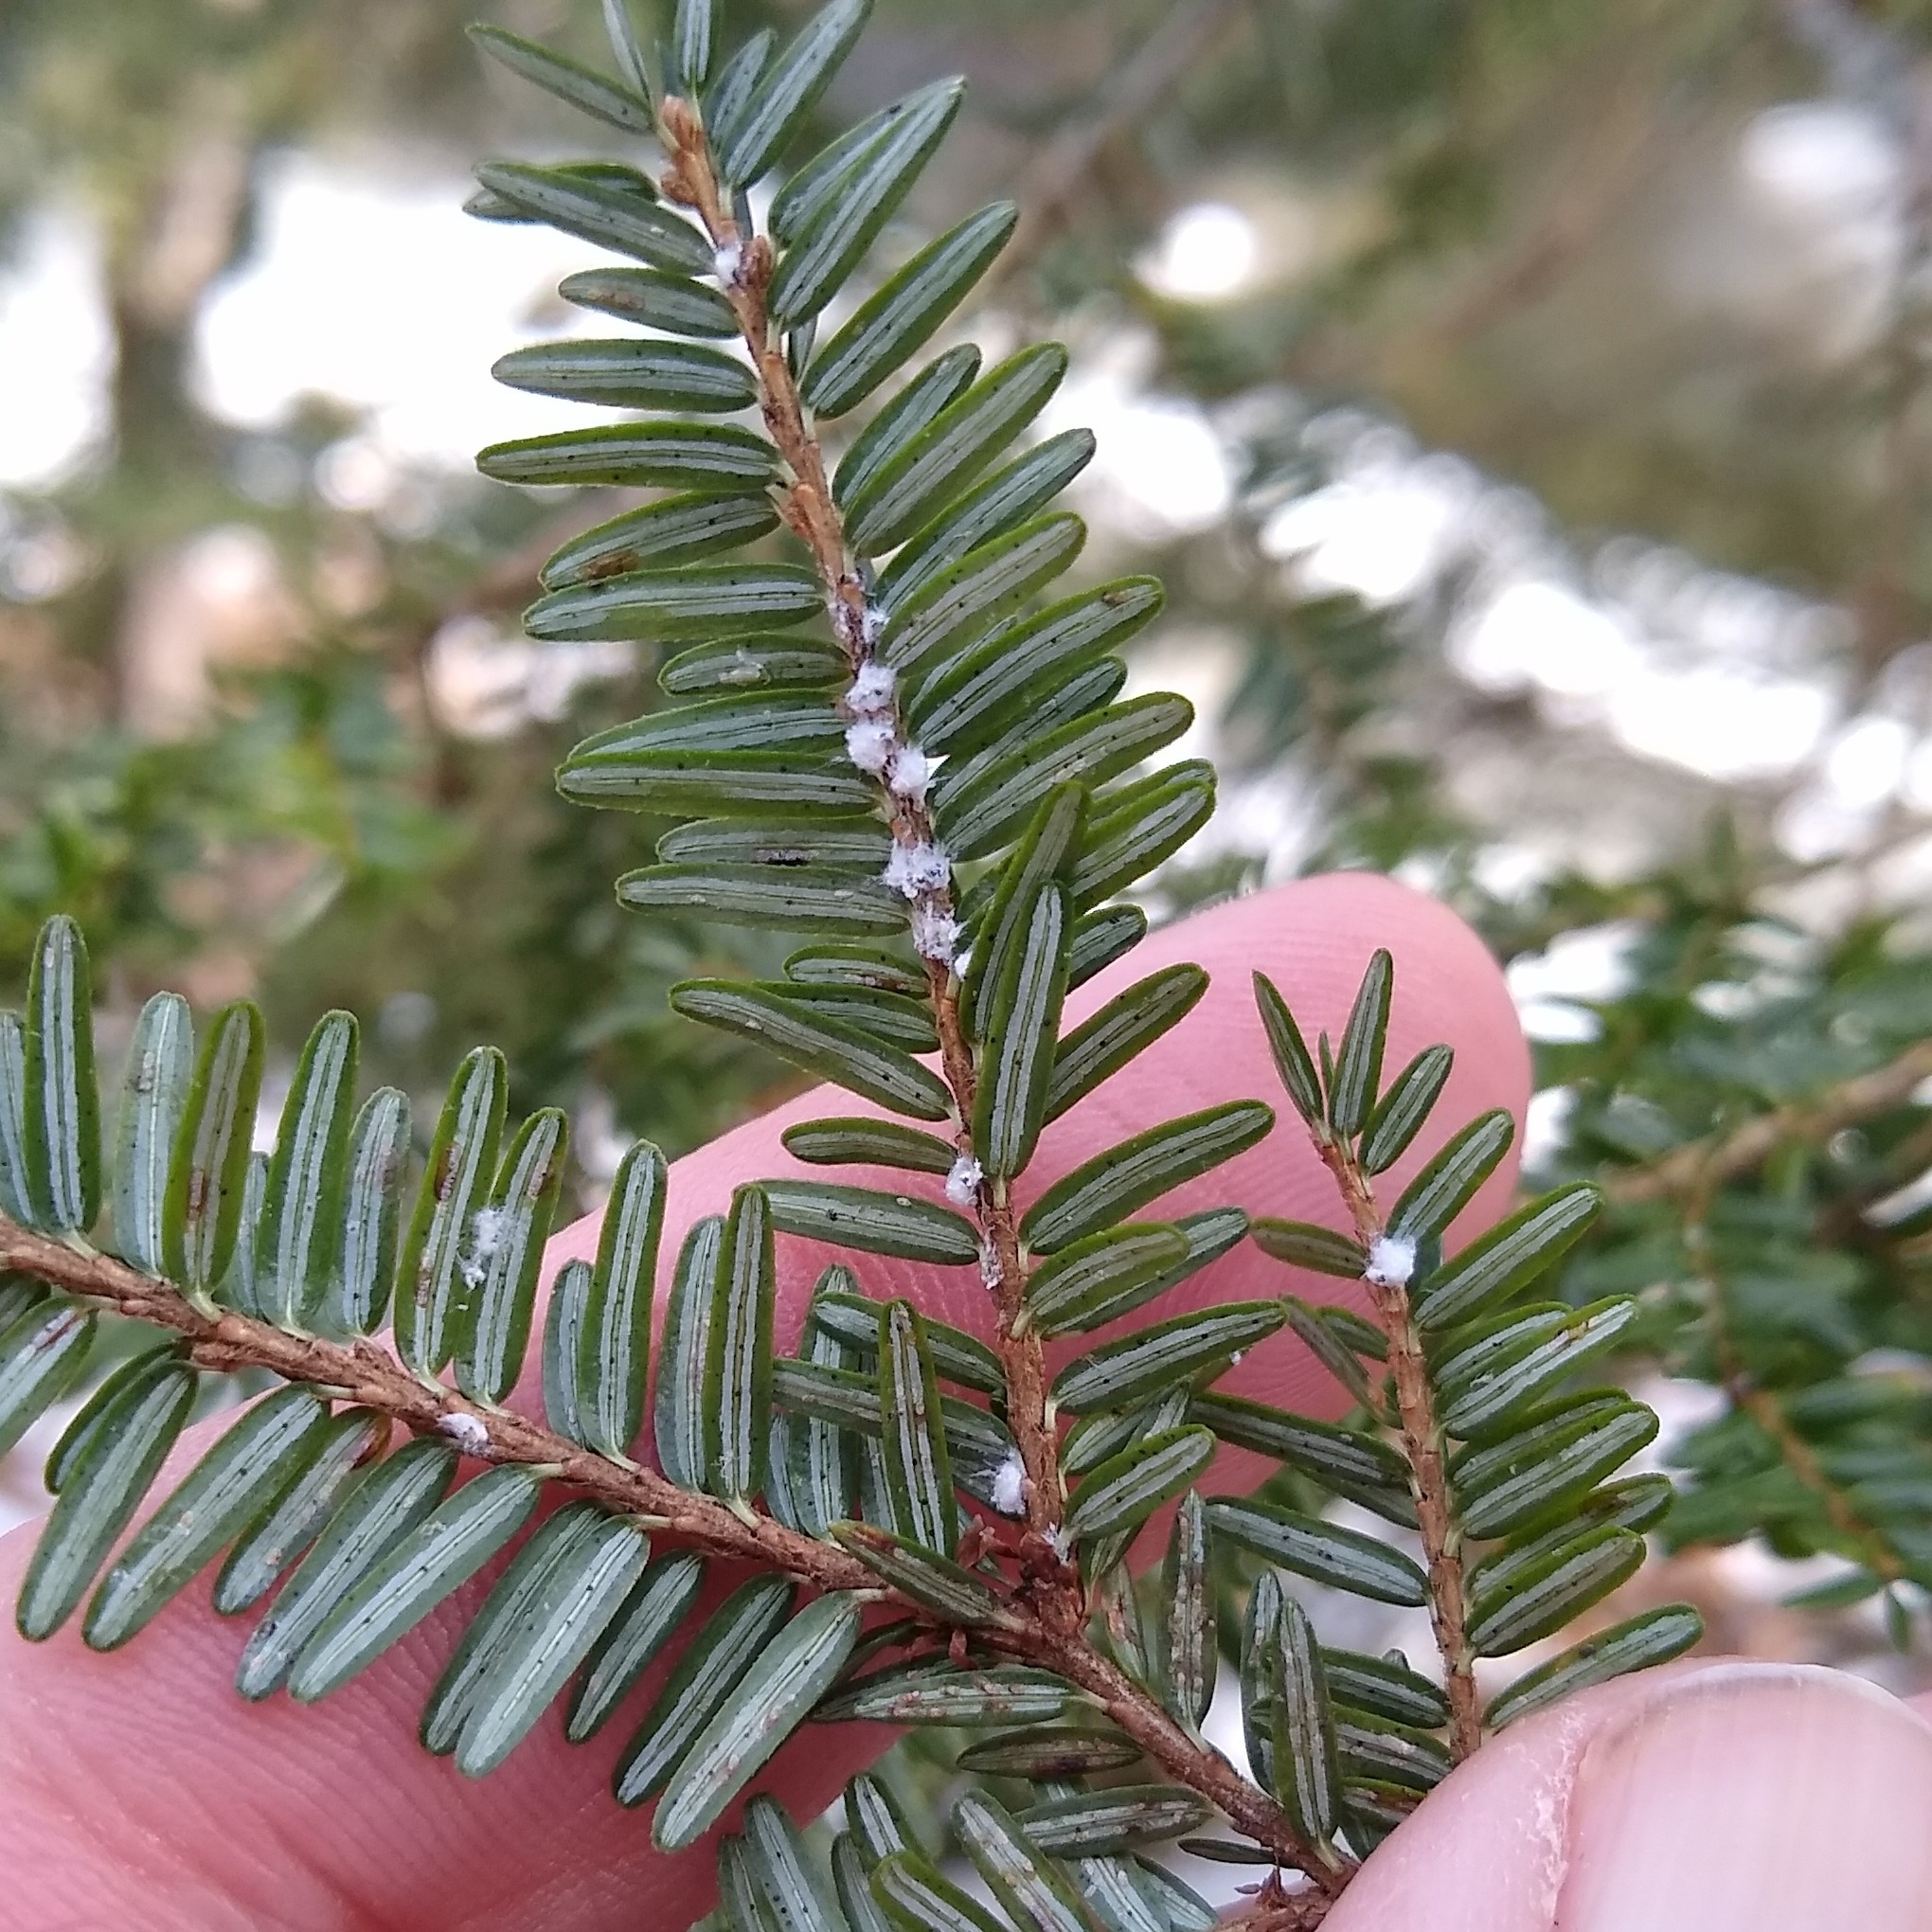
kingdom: Animalia
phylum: Arthropoda
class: Insecta
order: Hemiptera
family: Adelgidae
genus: Adelges
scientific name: Adelges tsugae
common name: Hemlock woolly adelgid
